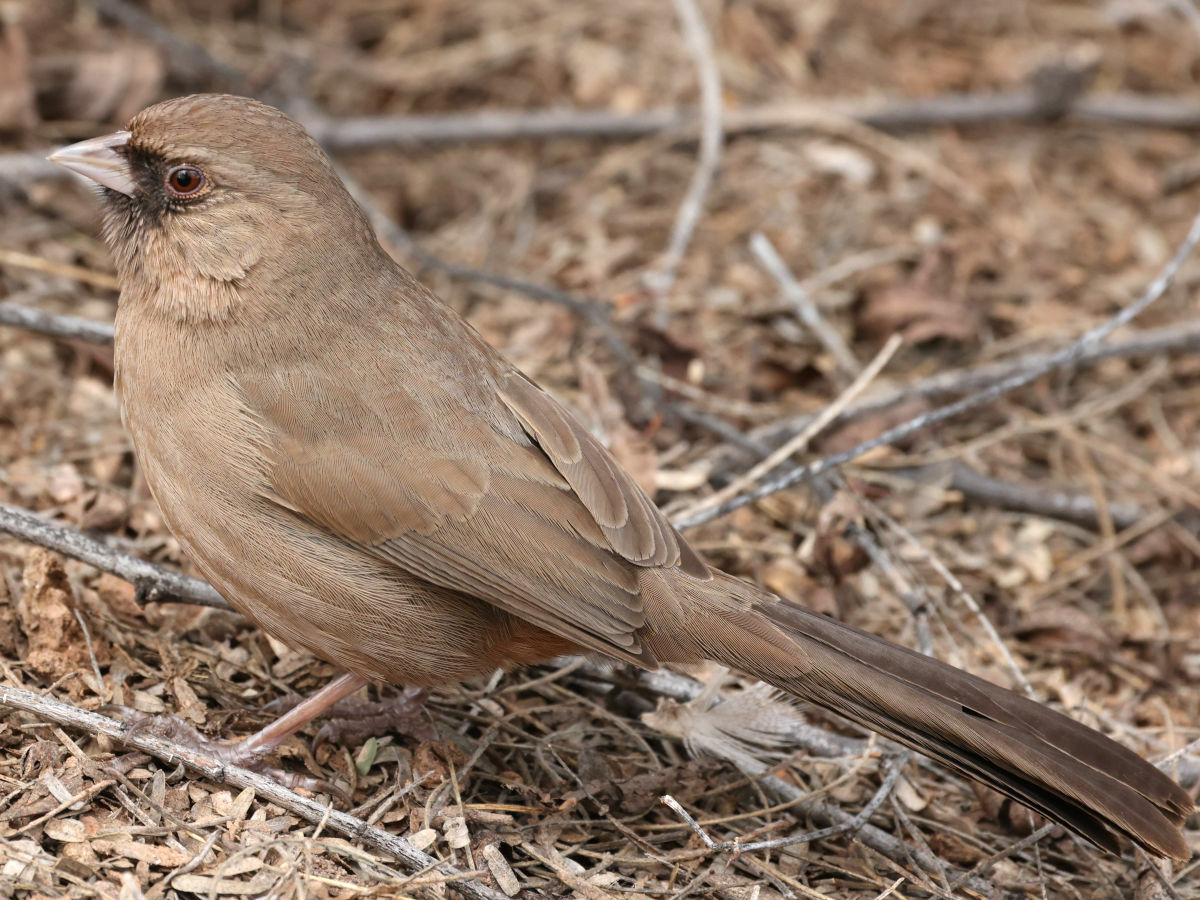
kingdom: Animalia
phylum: Chordata
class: Aves
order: Passeriformes
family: Passerellidae
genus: Melozone
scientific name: Melozone aberti
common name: Abert's towhee
